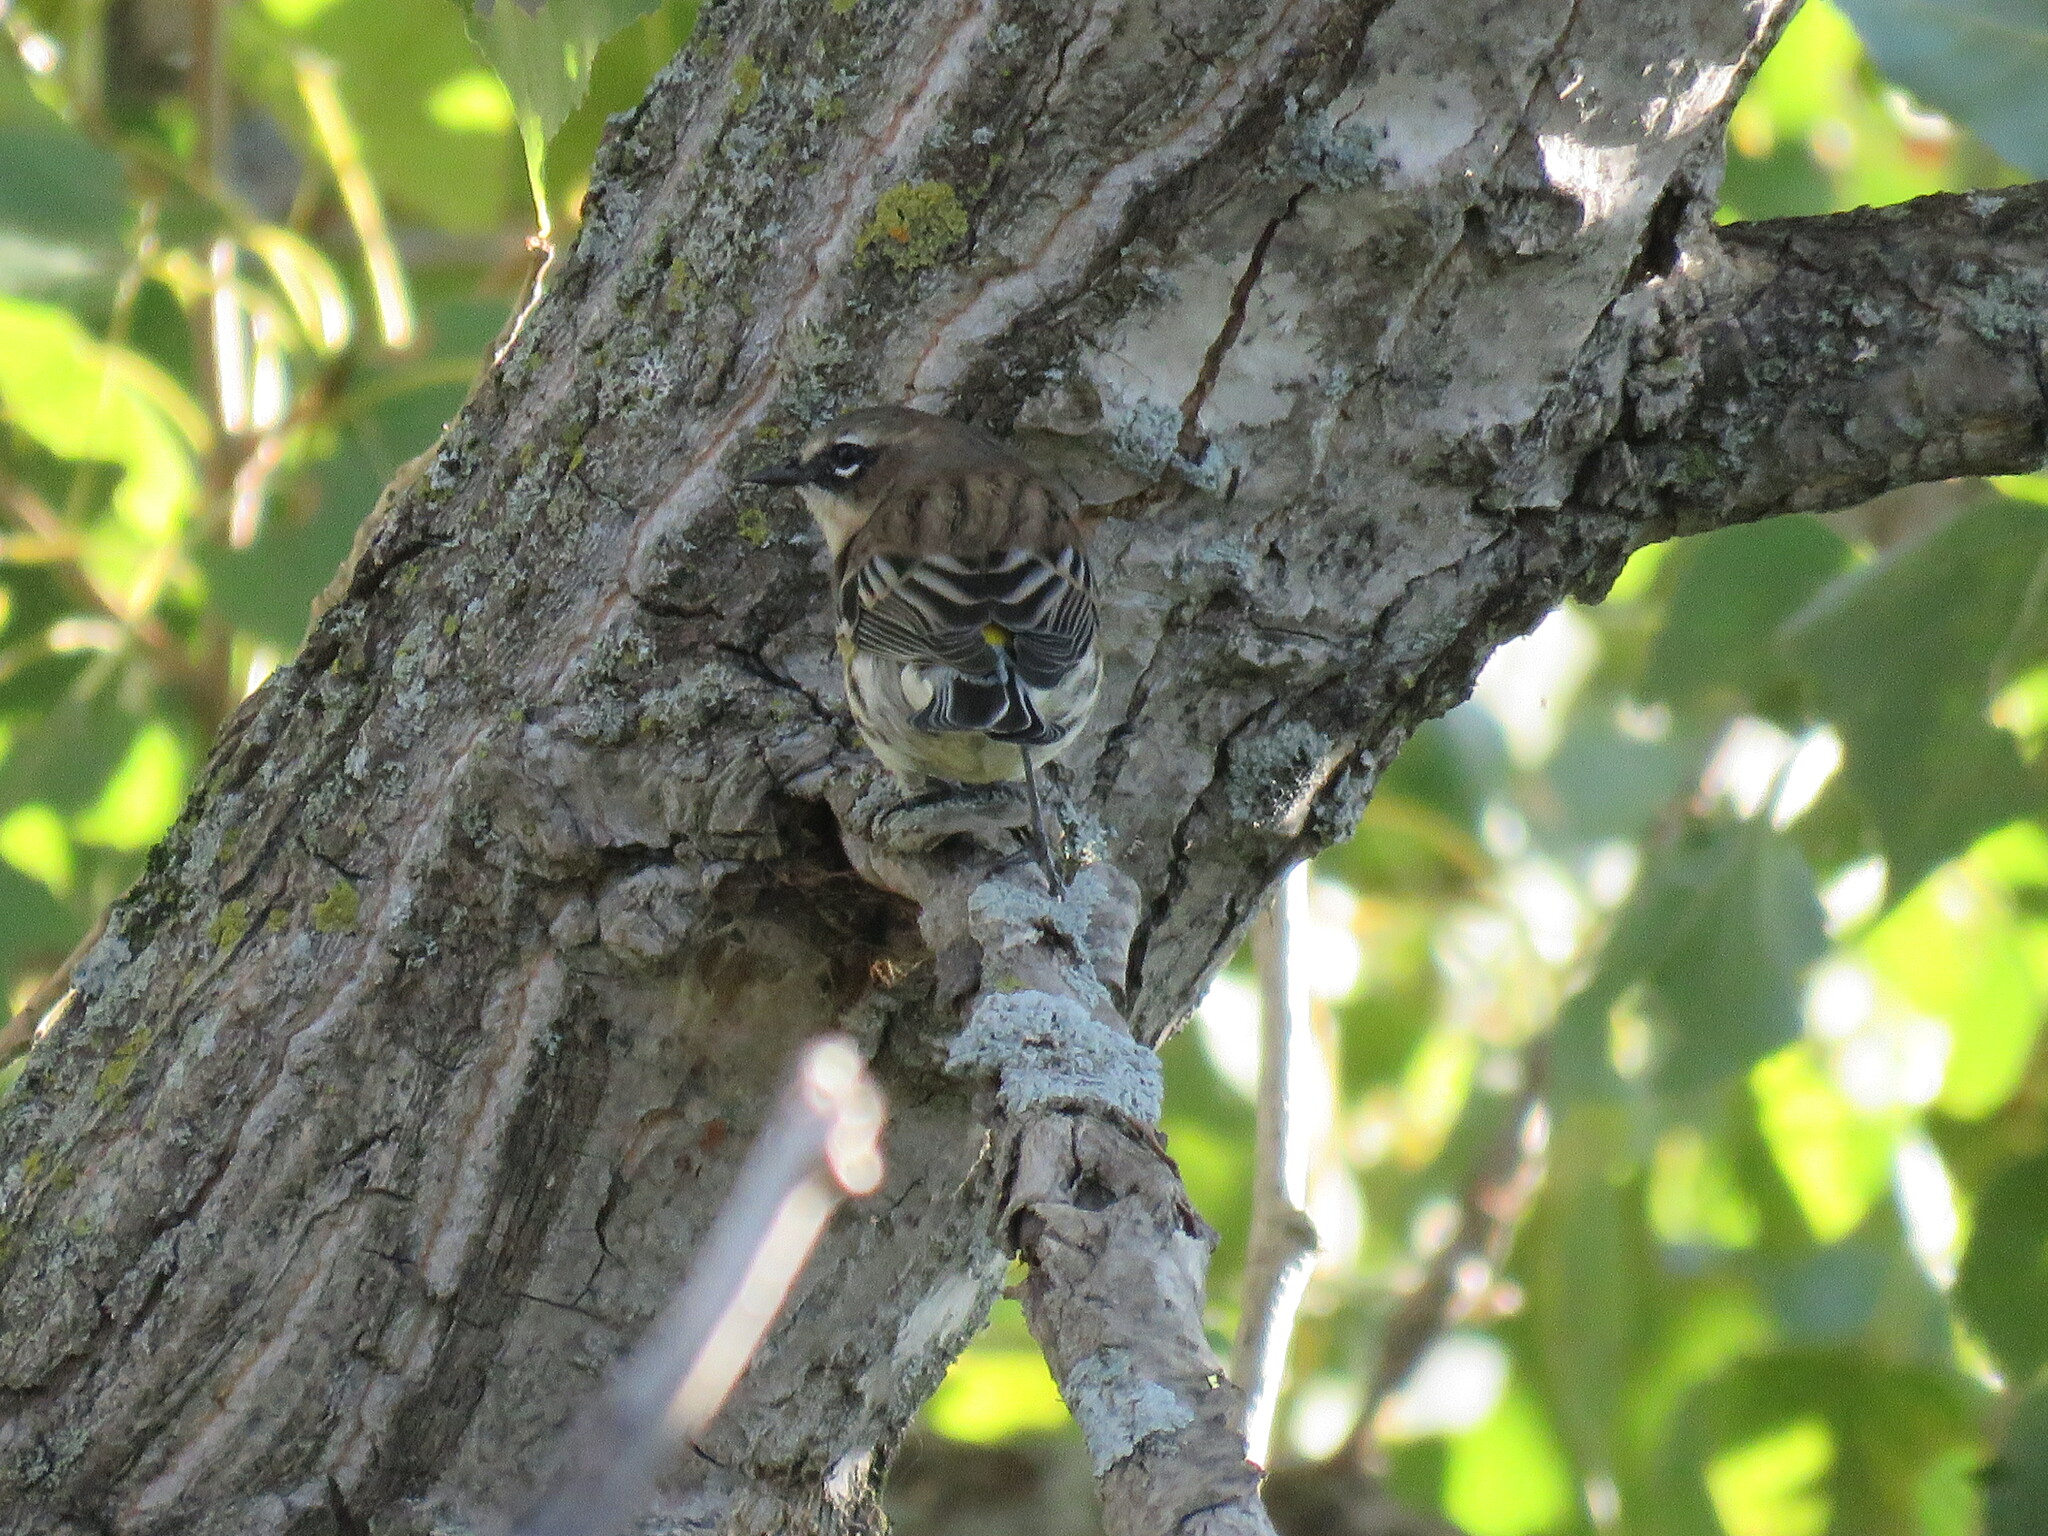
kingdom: Animalia
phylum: Chordata
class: Aves
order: Passeriformes
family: Parulidae
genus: Setophaga
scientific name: Setophaga coronata
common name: Myrtle warbler
